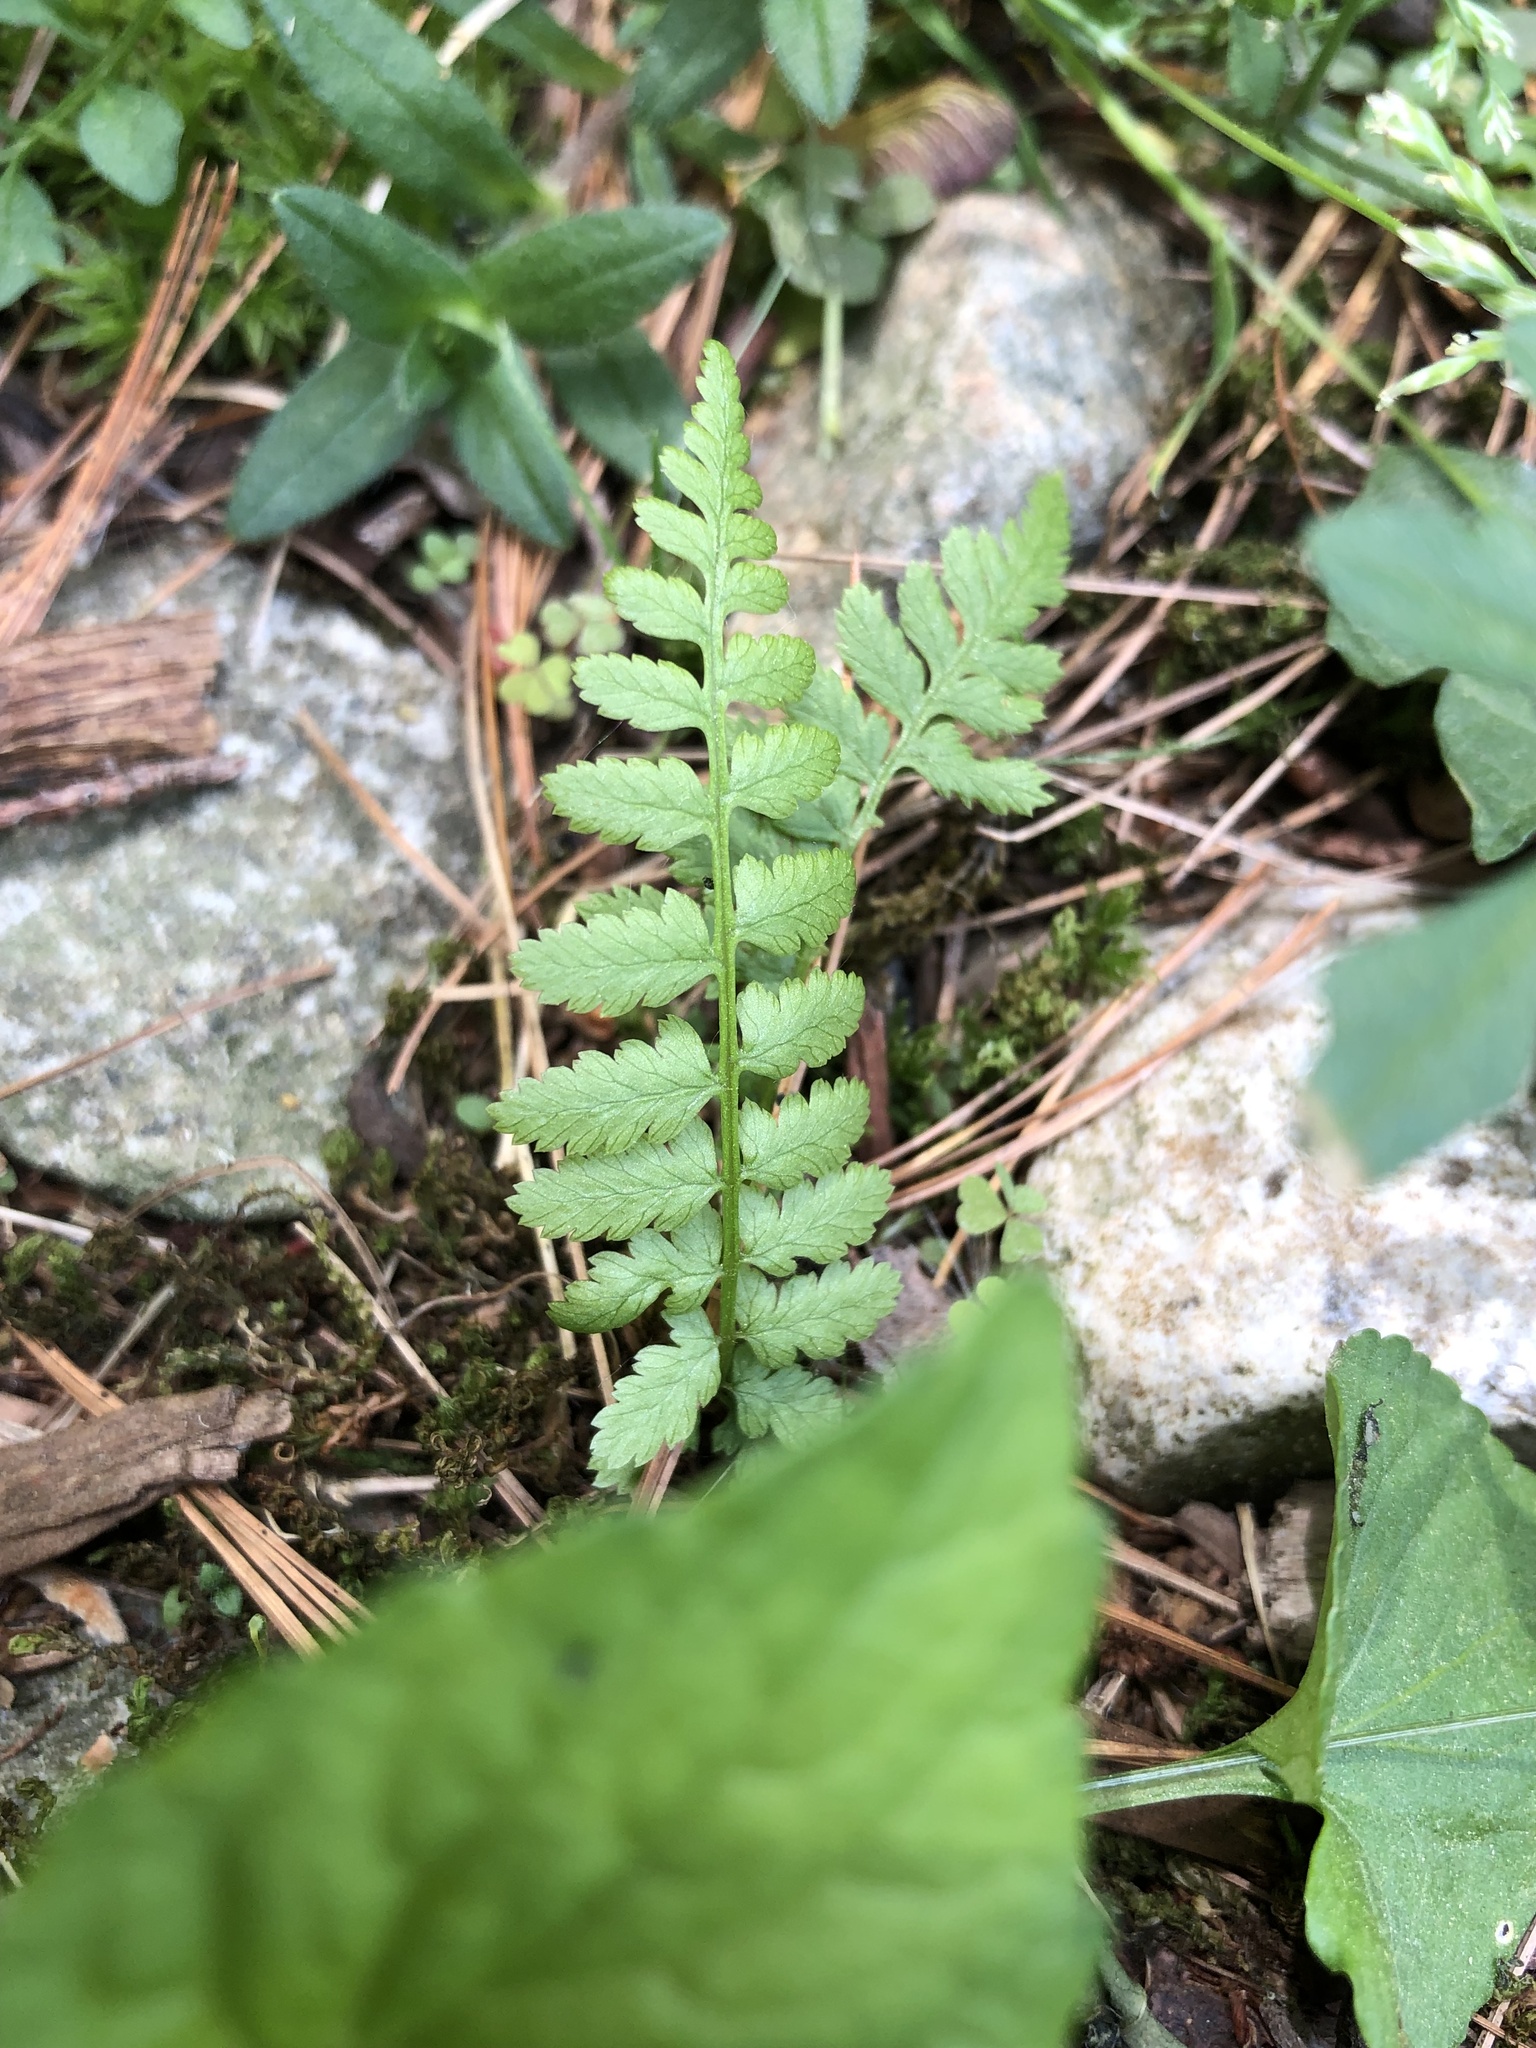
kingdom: Plantae
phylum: Tracheophyta
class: Polypodiopsida
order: Polypodiales
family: Athyriaceae
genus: Athyrium
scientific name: Athyrium angustum
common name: Northern lady fern
